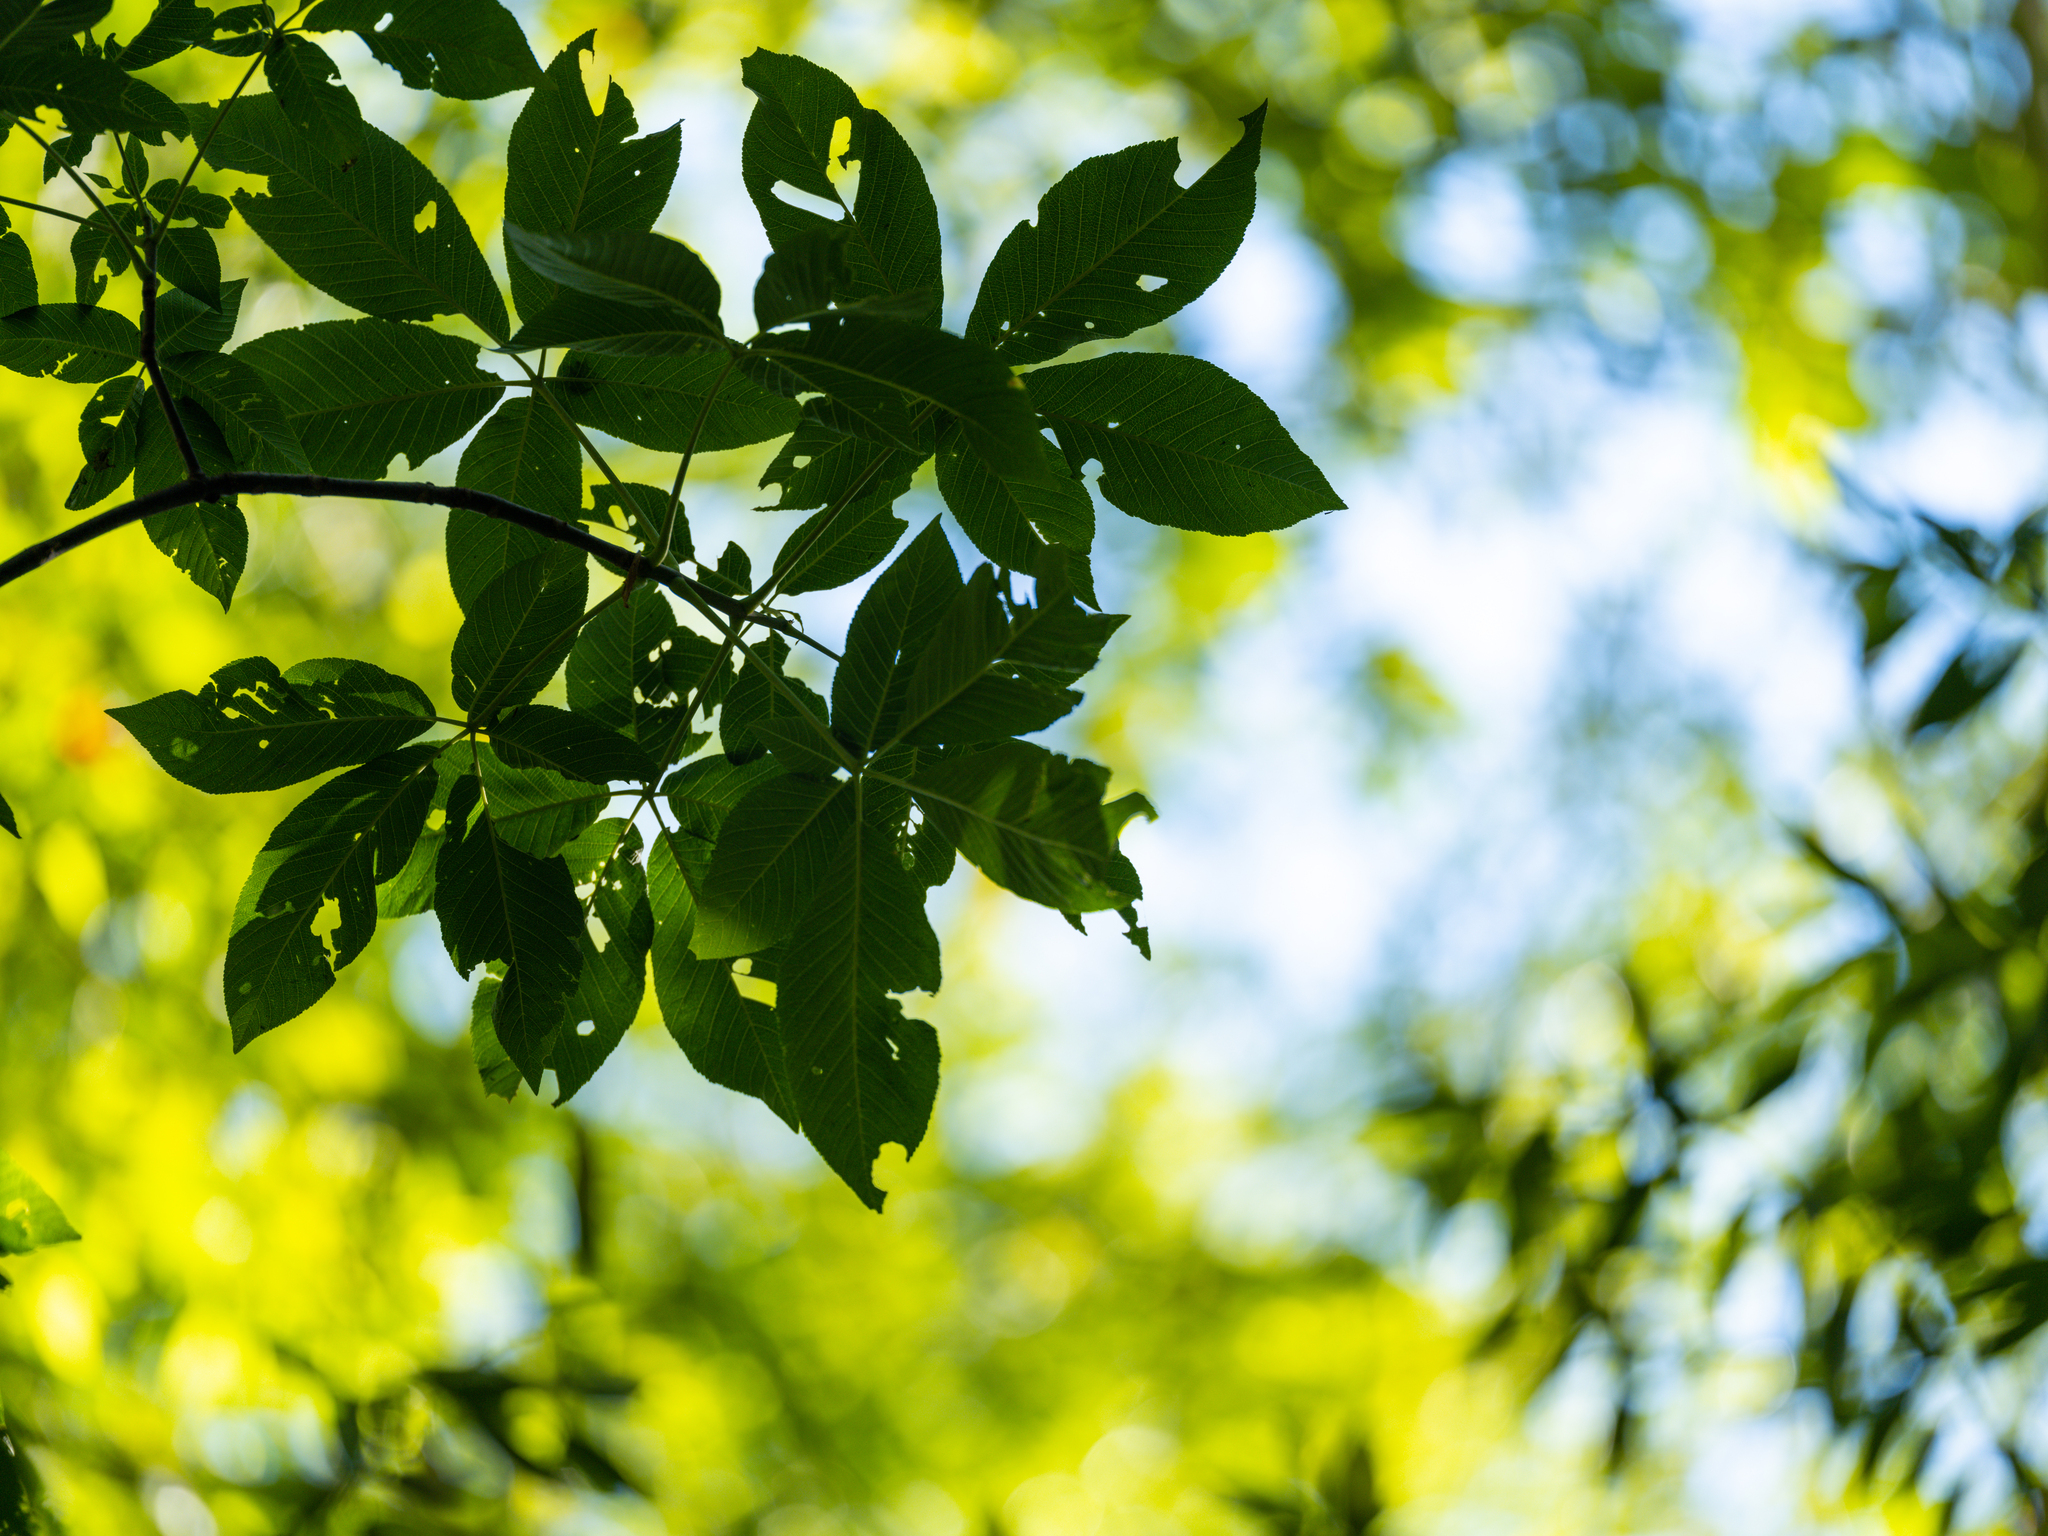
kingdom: Plantae
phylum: Tracheophyta
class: Magnoliopsida
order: Sapindales
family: Sapindaceae
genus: Aesculus
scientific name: Aesculus californica
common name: California buckeye
